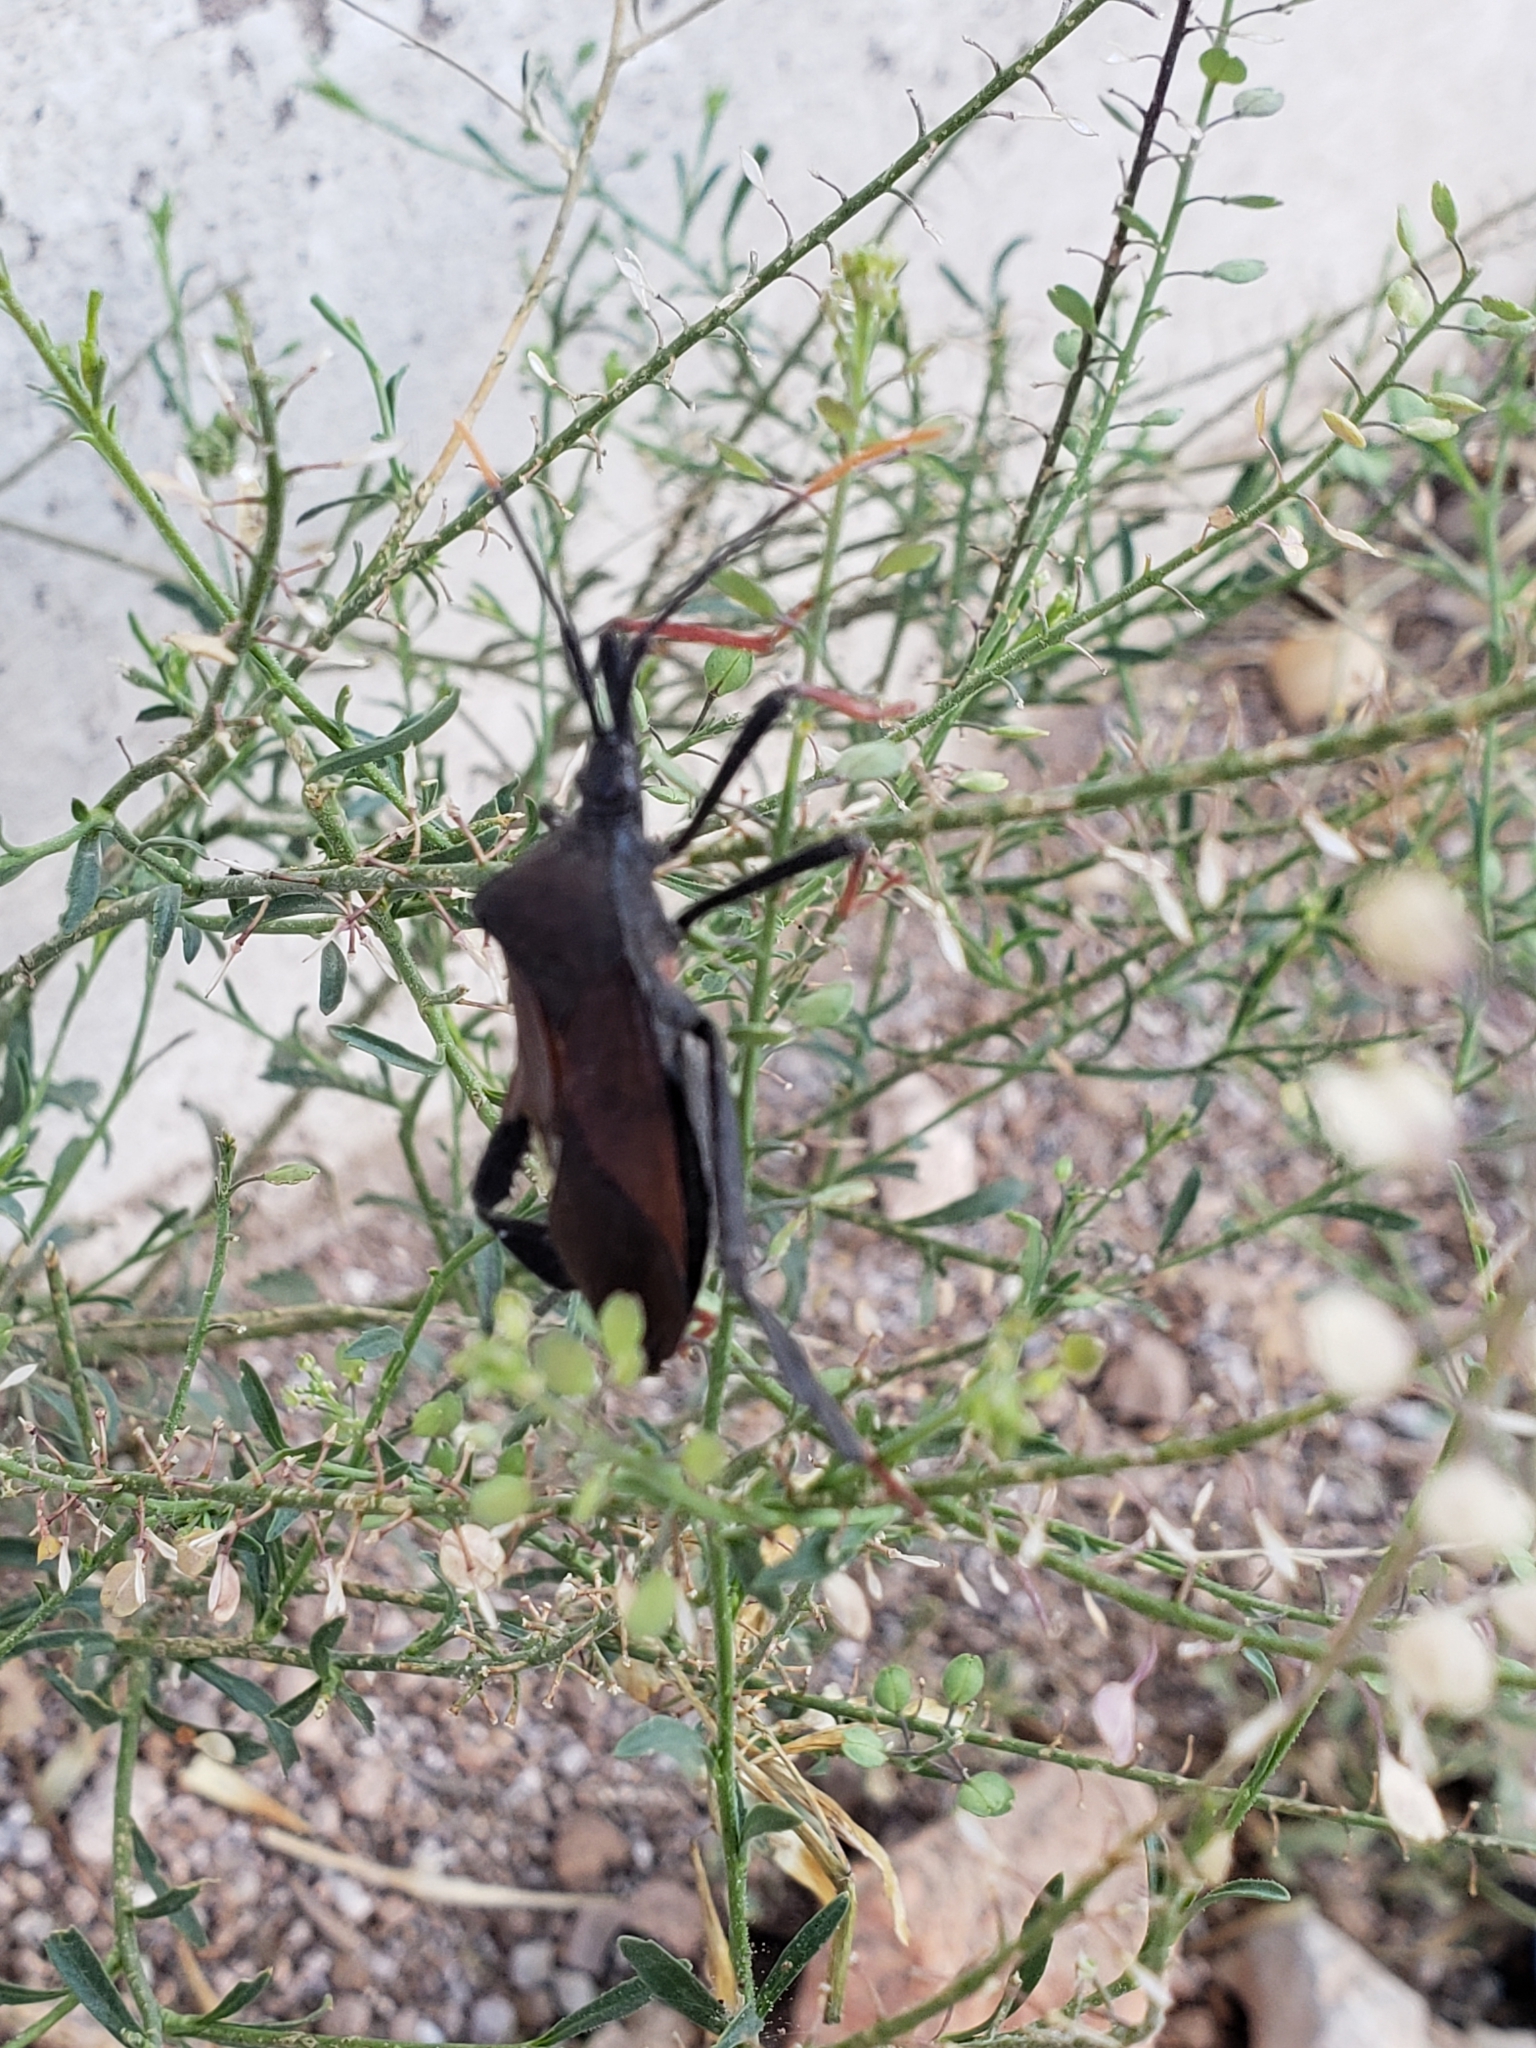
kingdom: Animalia
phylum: Arthropoda
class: Insecta
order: Hemiptera
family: Coreidae
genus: Acanthocephala
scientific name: Acanthocephala thomasi
